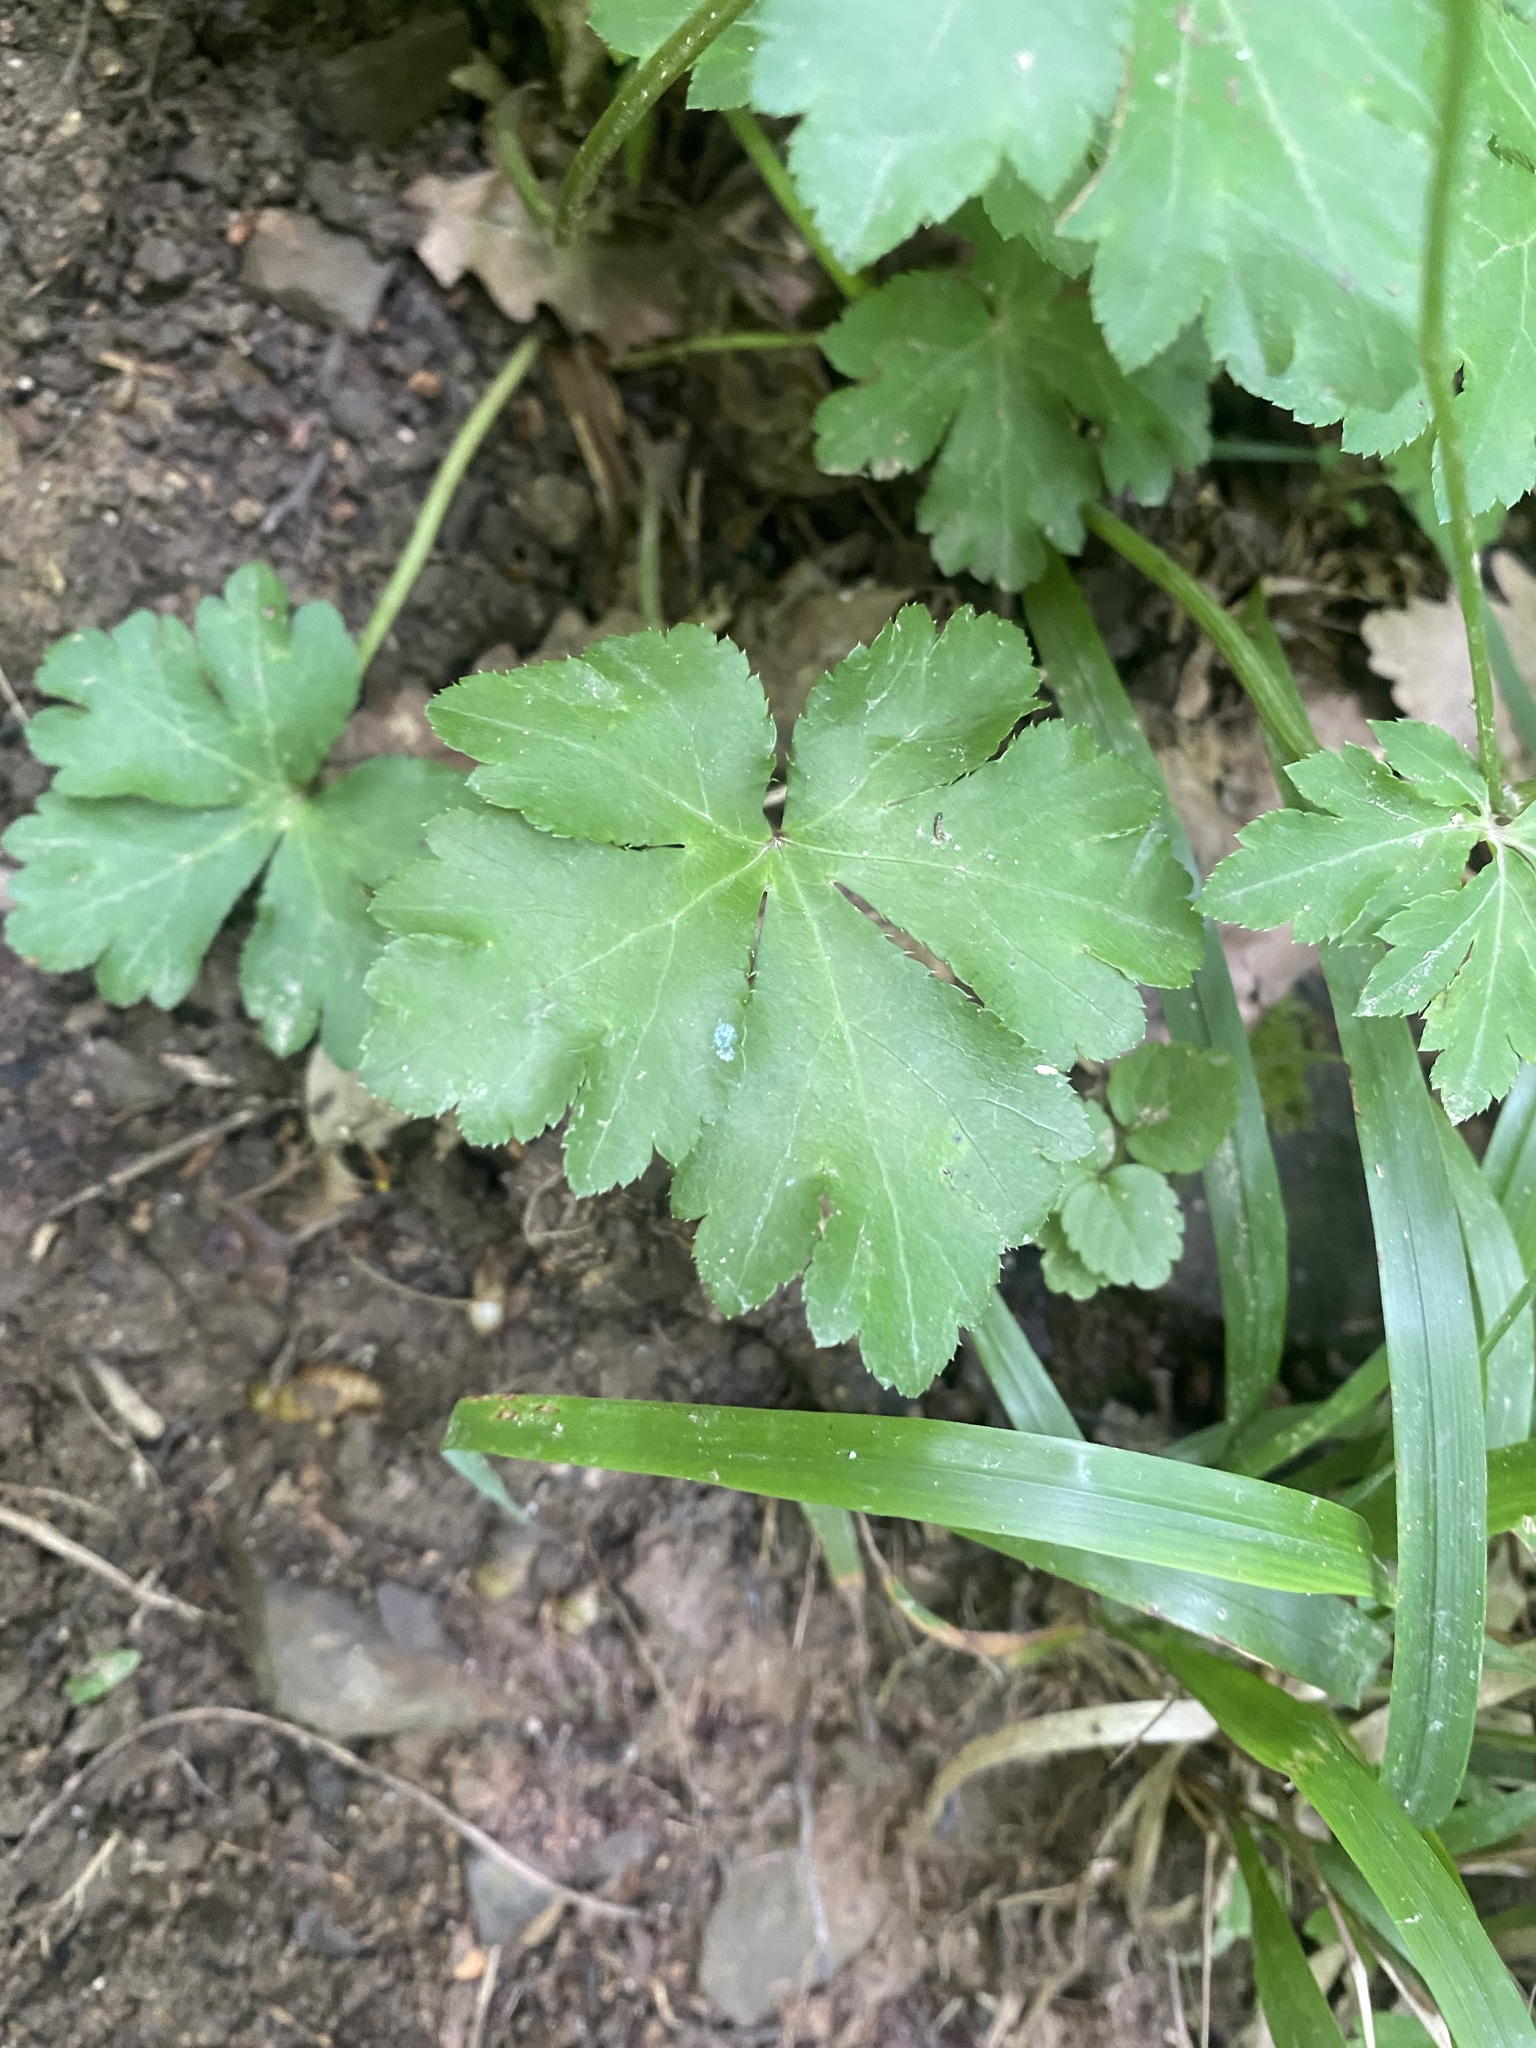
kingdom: Plantae
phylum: Tracheophyta
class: Magnoliopsida
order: Apiales
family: Apiaceae
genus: Sanicula
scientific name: Sanicula europaea
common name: Sanicle
